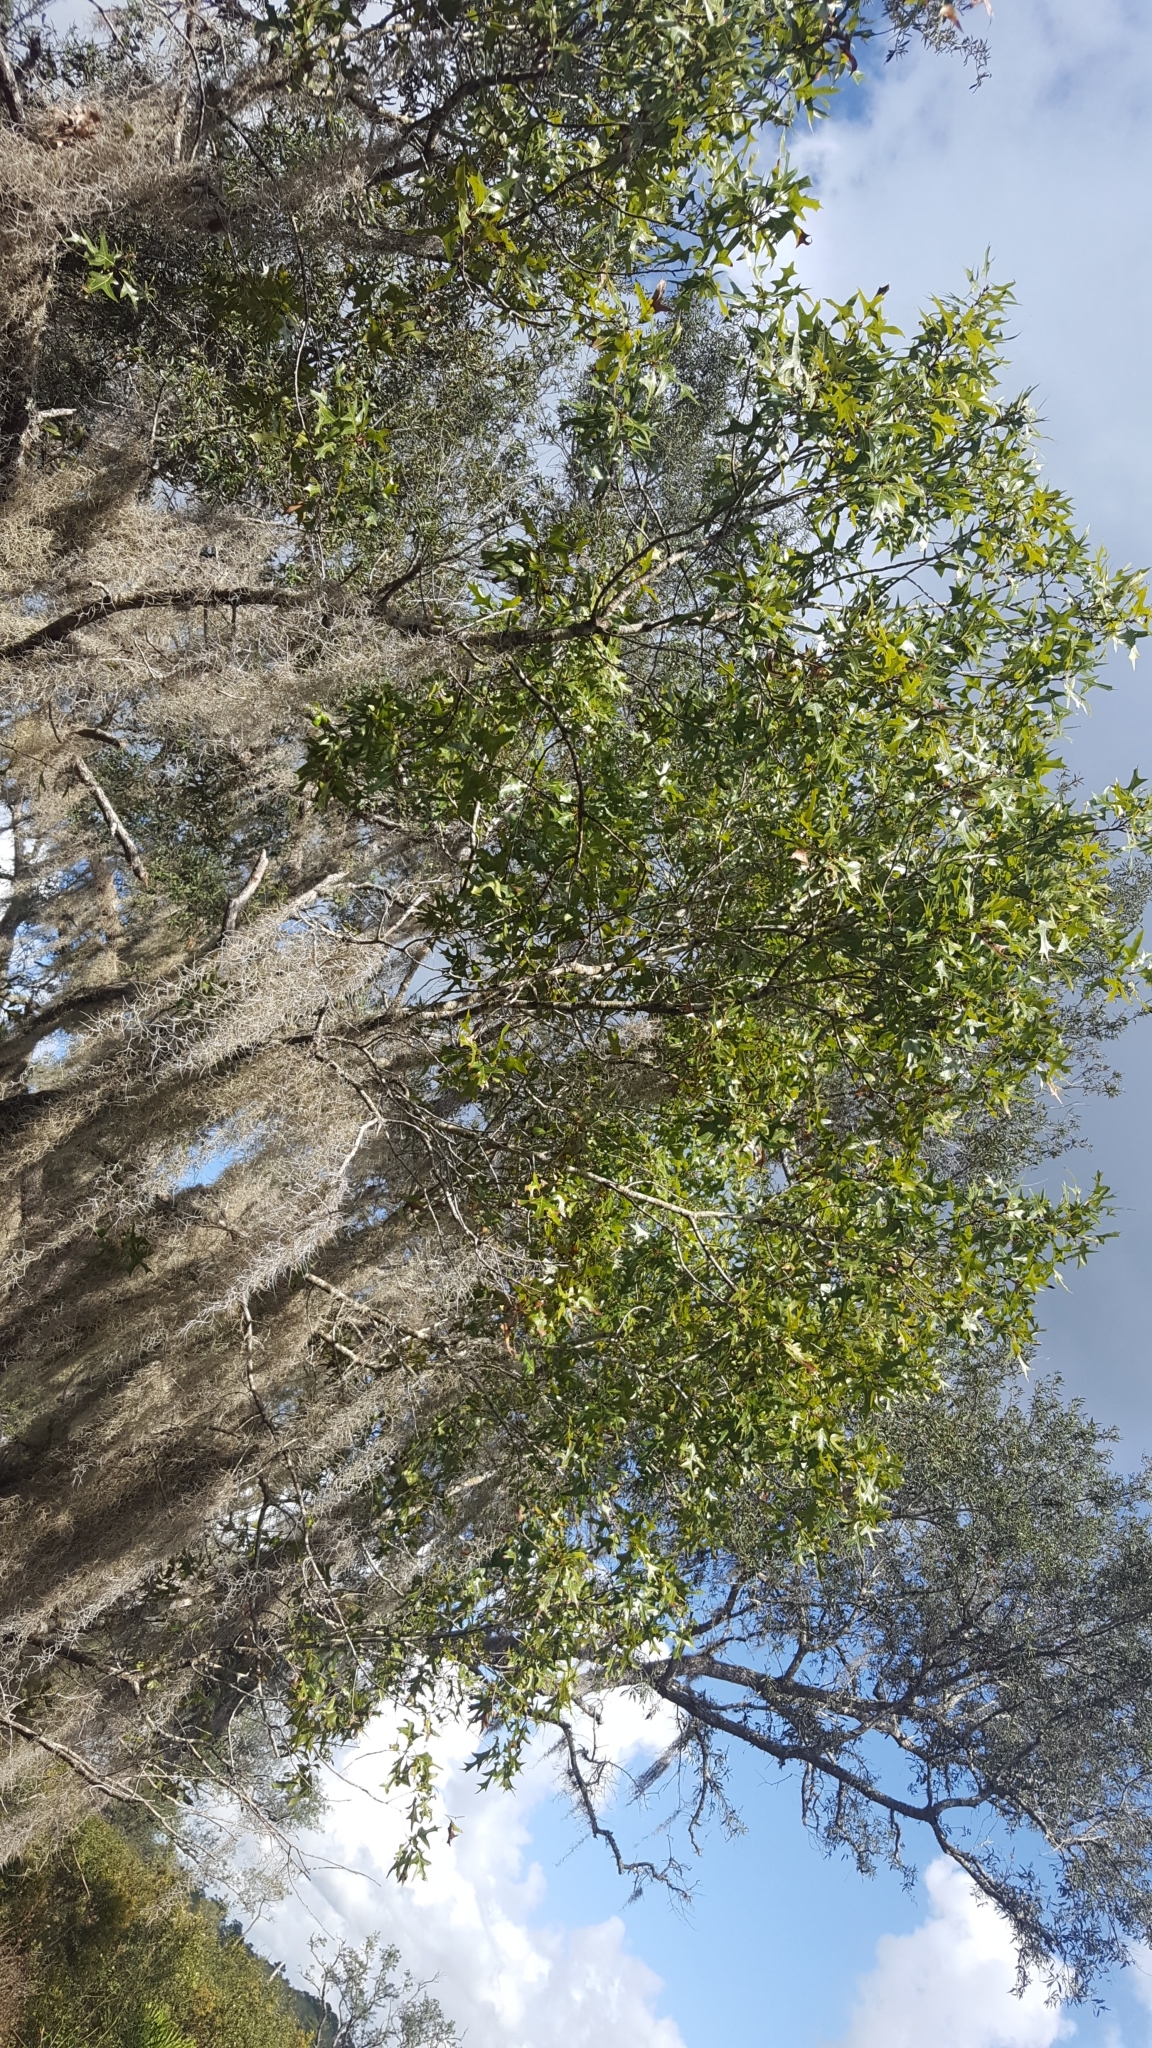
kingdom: Plantae
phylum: Tracheophyta
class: Magnoliopsida
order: Fagales
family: Fagaceae
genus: Quercus
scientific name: Quercus laevis
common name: Turkey oak
